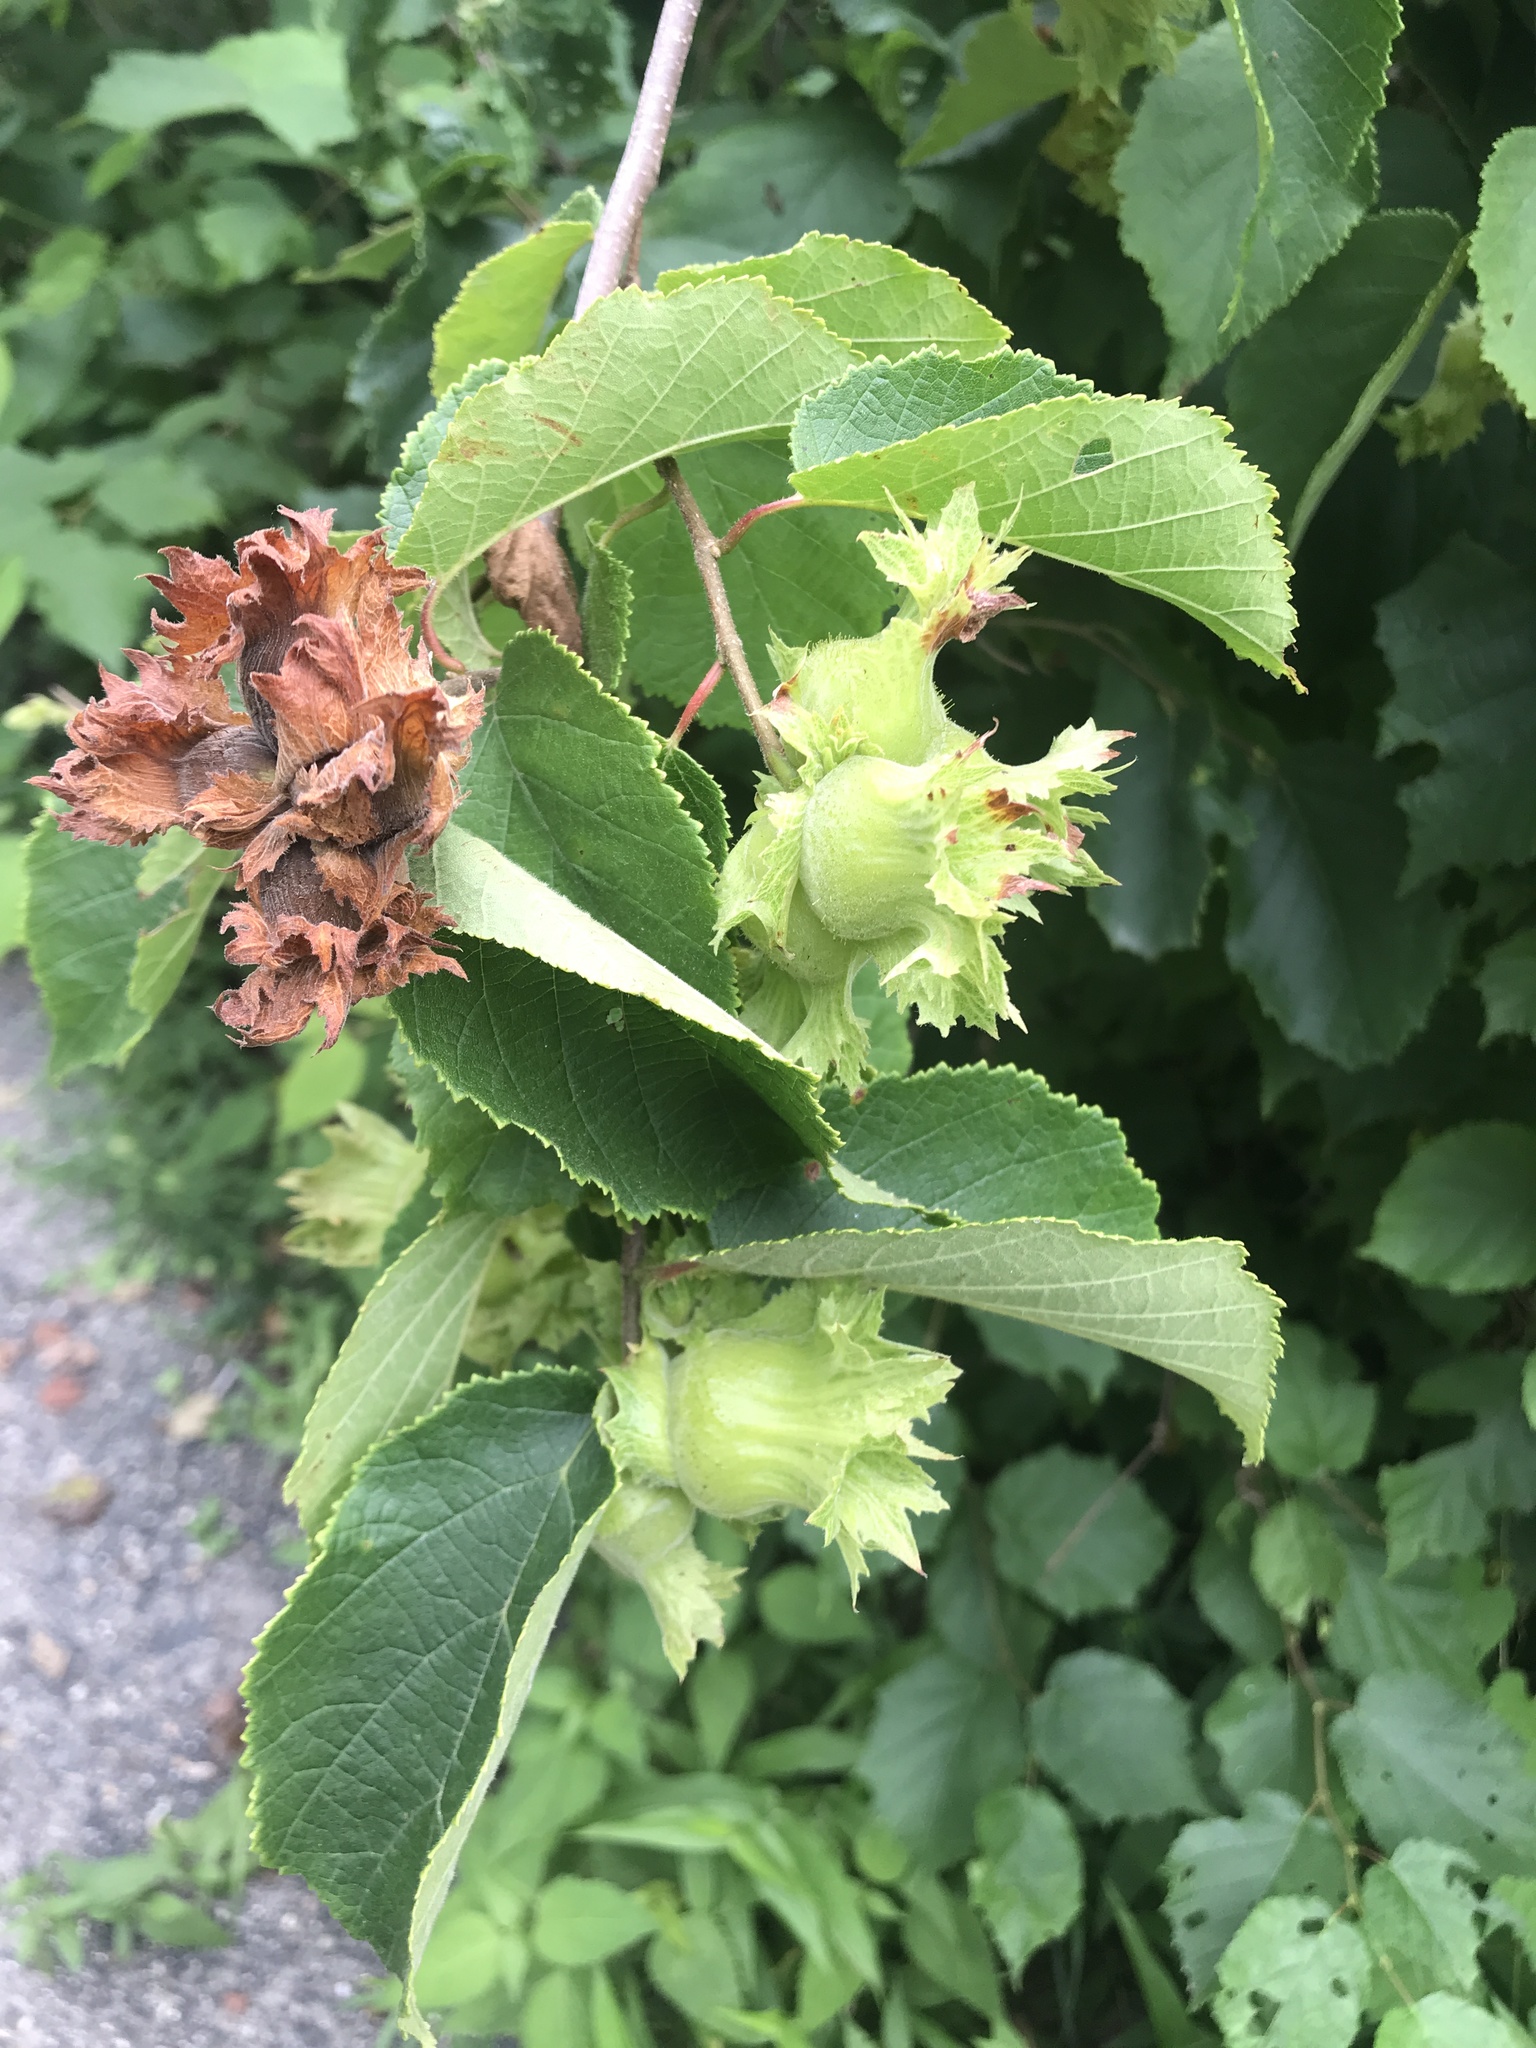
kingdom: Plantae
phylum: Tracheophyta
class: Magnoliopsida
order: Fagales
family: Betulaceae
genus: Corylus
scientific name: Corylus americana
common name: American hazel
